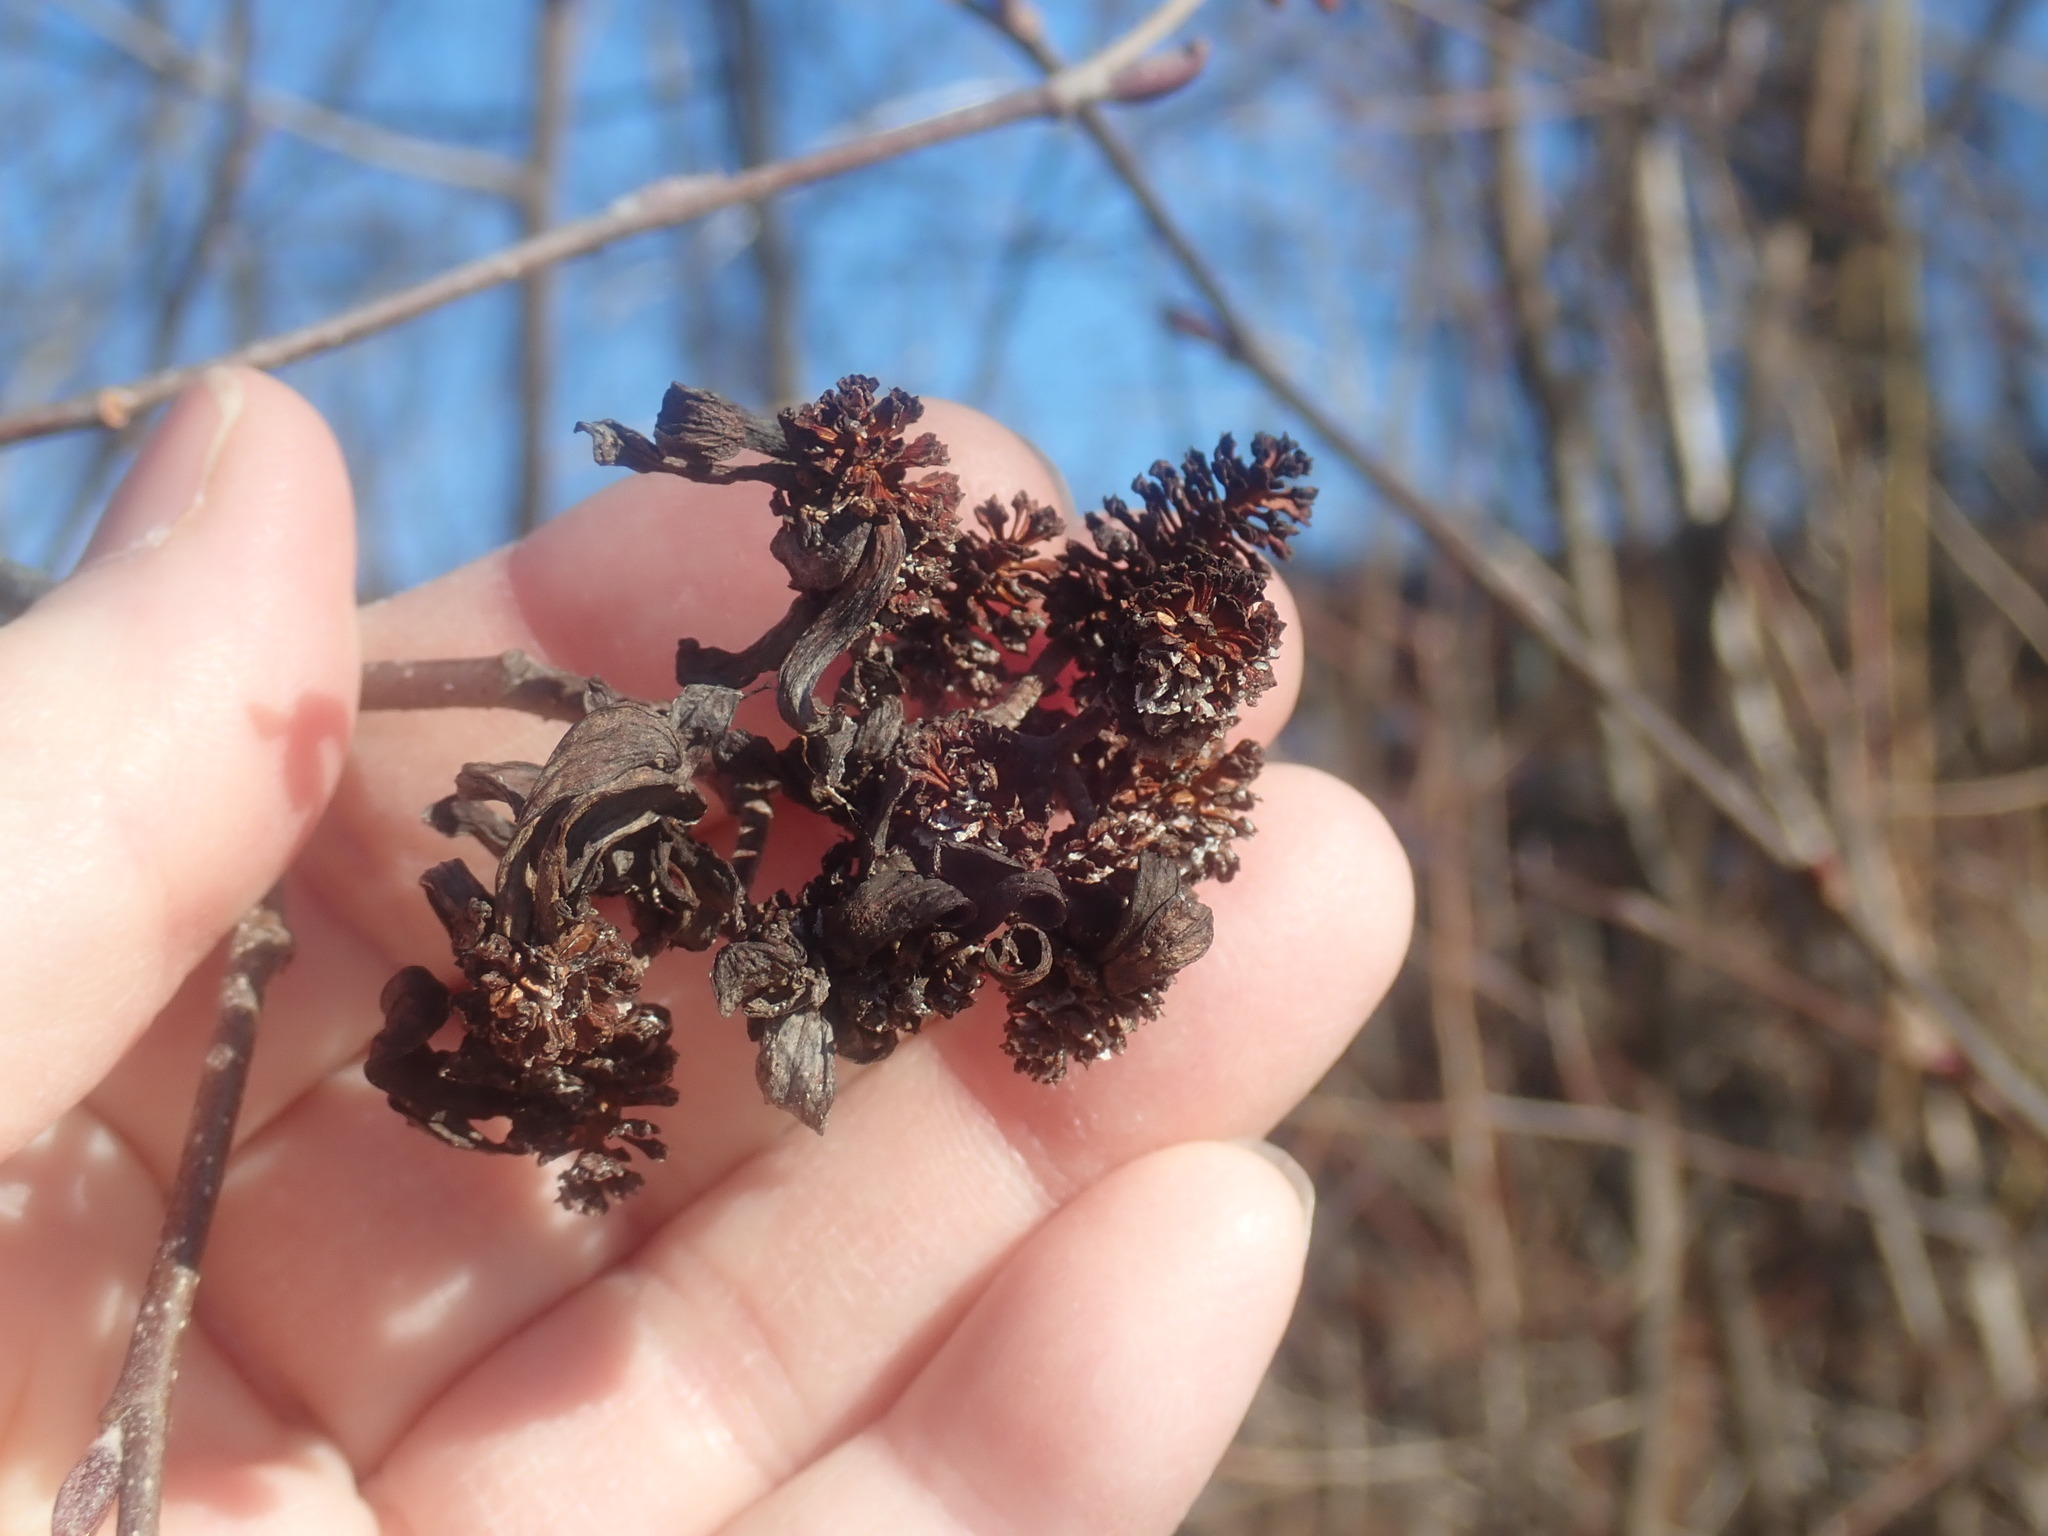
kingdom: Fungi
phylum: Ascomycota
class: Taphrinomycetes
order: Taphrinales
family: Taphrinaceae
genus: Taphrina
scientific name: Taphrina robinsoniana
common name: Eastern american alder tongue gall fungus
